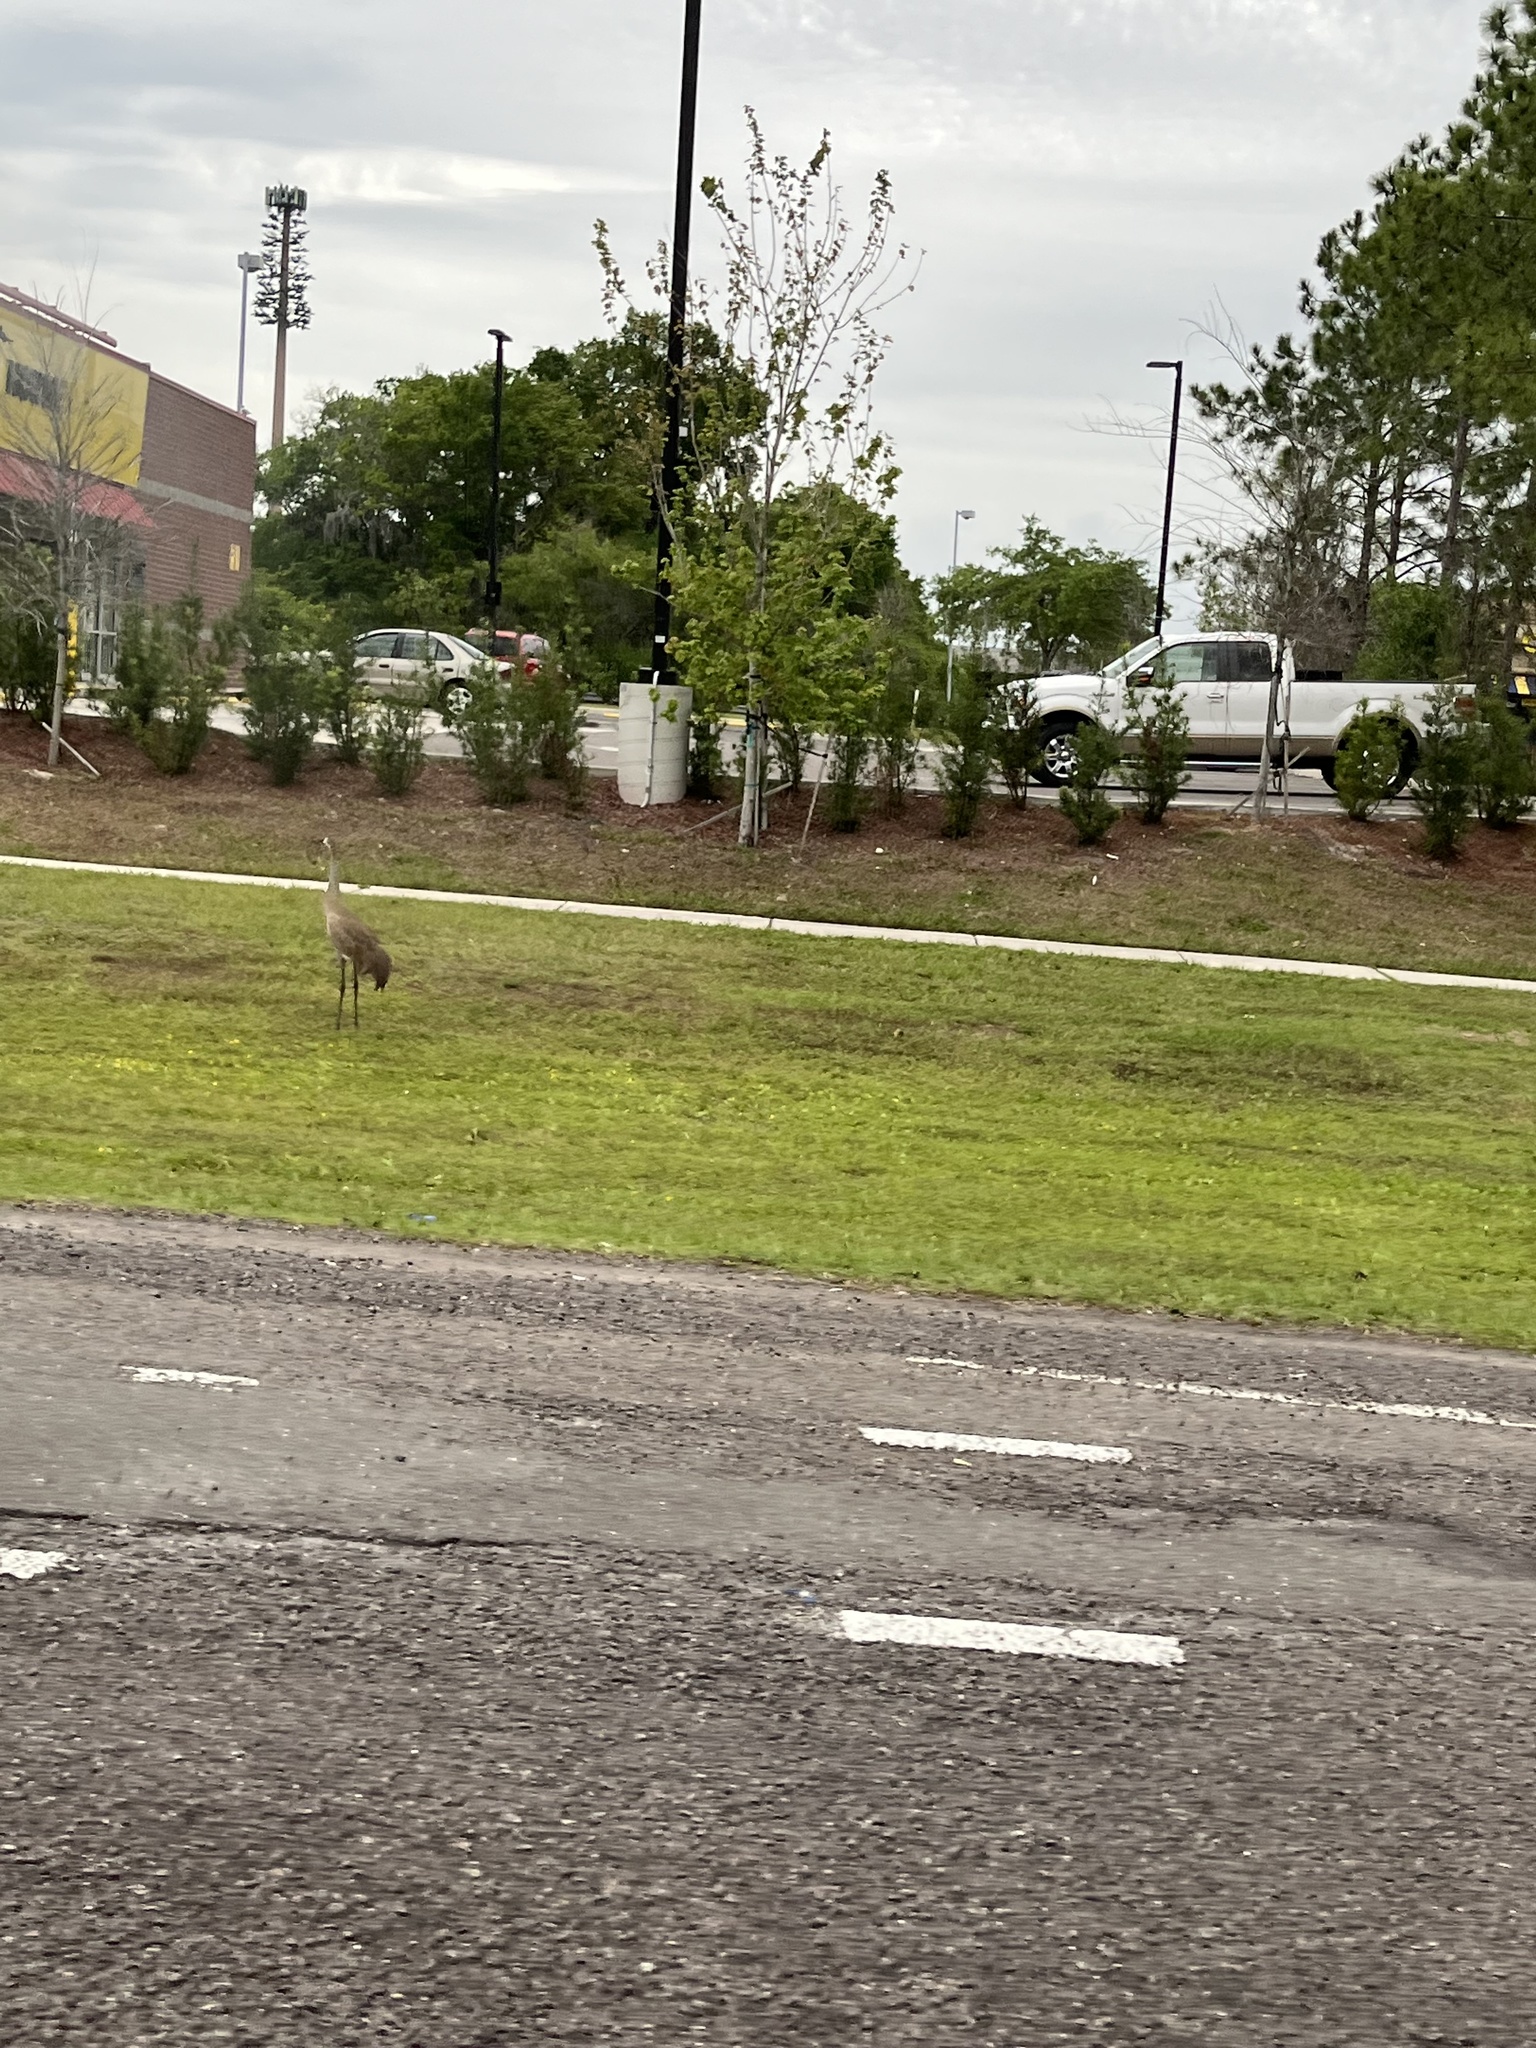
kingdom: Animalia
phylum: Chordata
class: Aves
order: Gruiformes
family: Gruidae
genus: Grus
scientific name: Grus canadensis
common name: Sandhill crane
